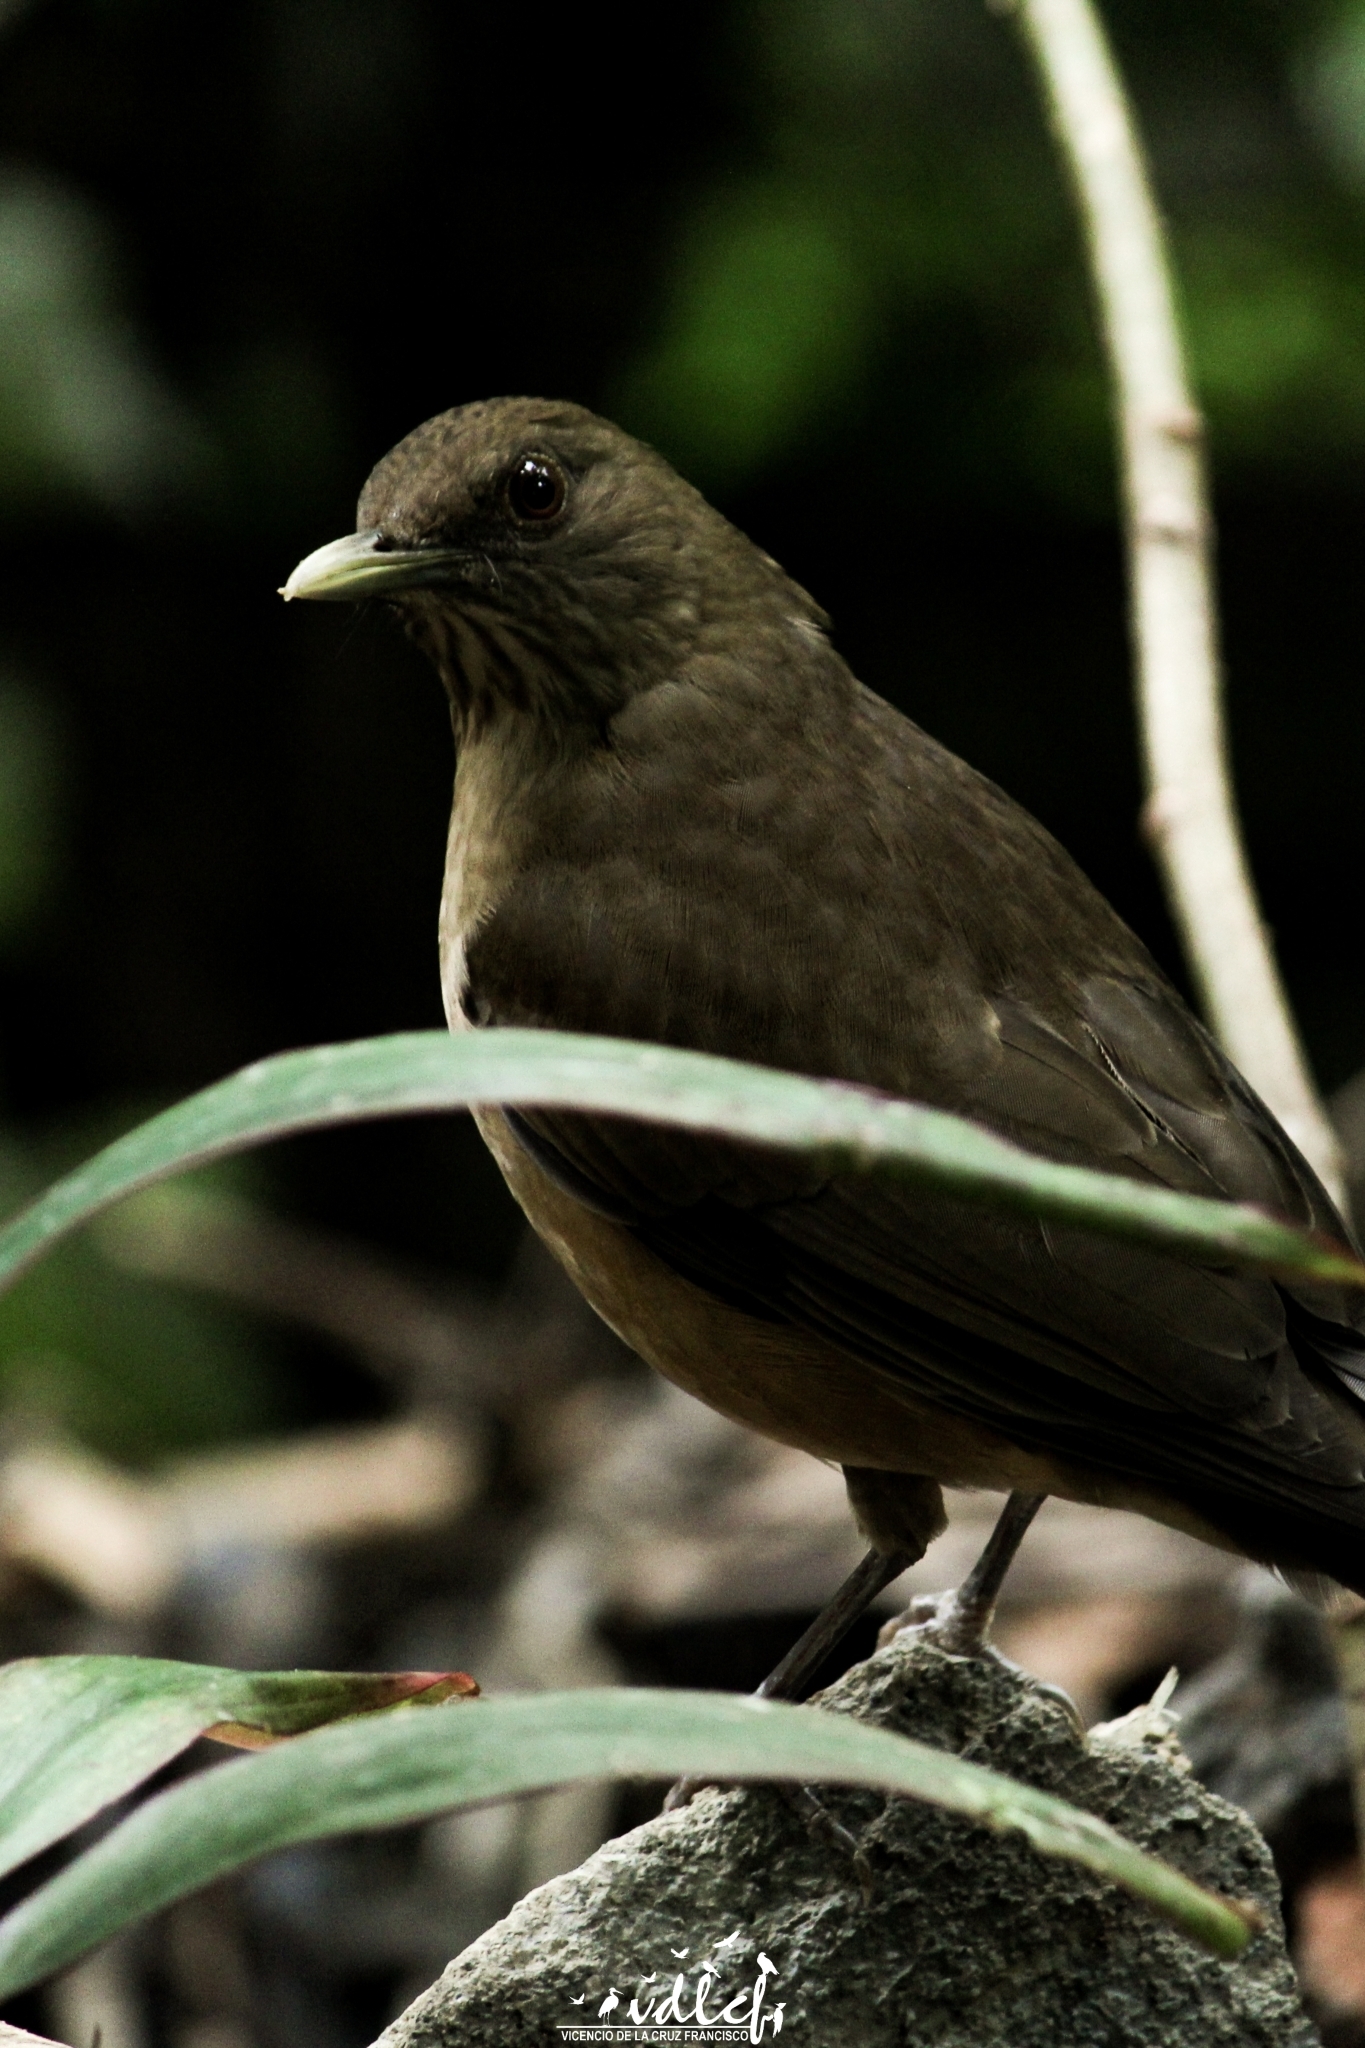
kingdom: Animalia
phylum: Chordata
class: Aves
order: Passeriformes
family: Turdidae
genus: Turdus
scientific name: Turdus grayi
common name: Clay-colored thrush
